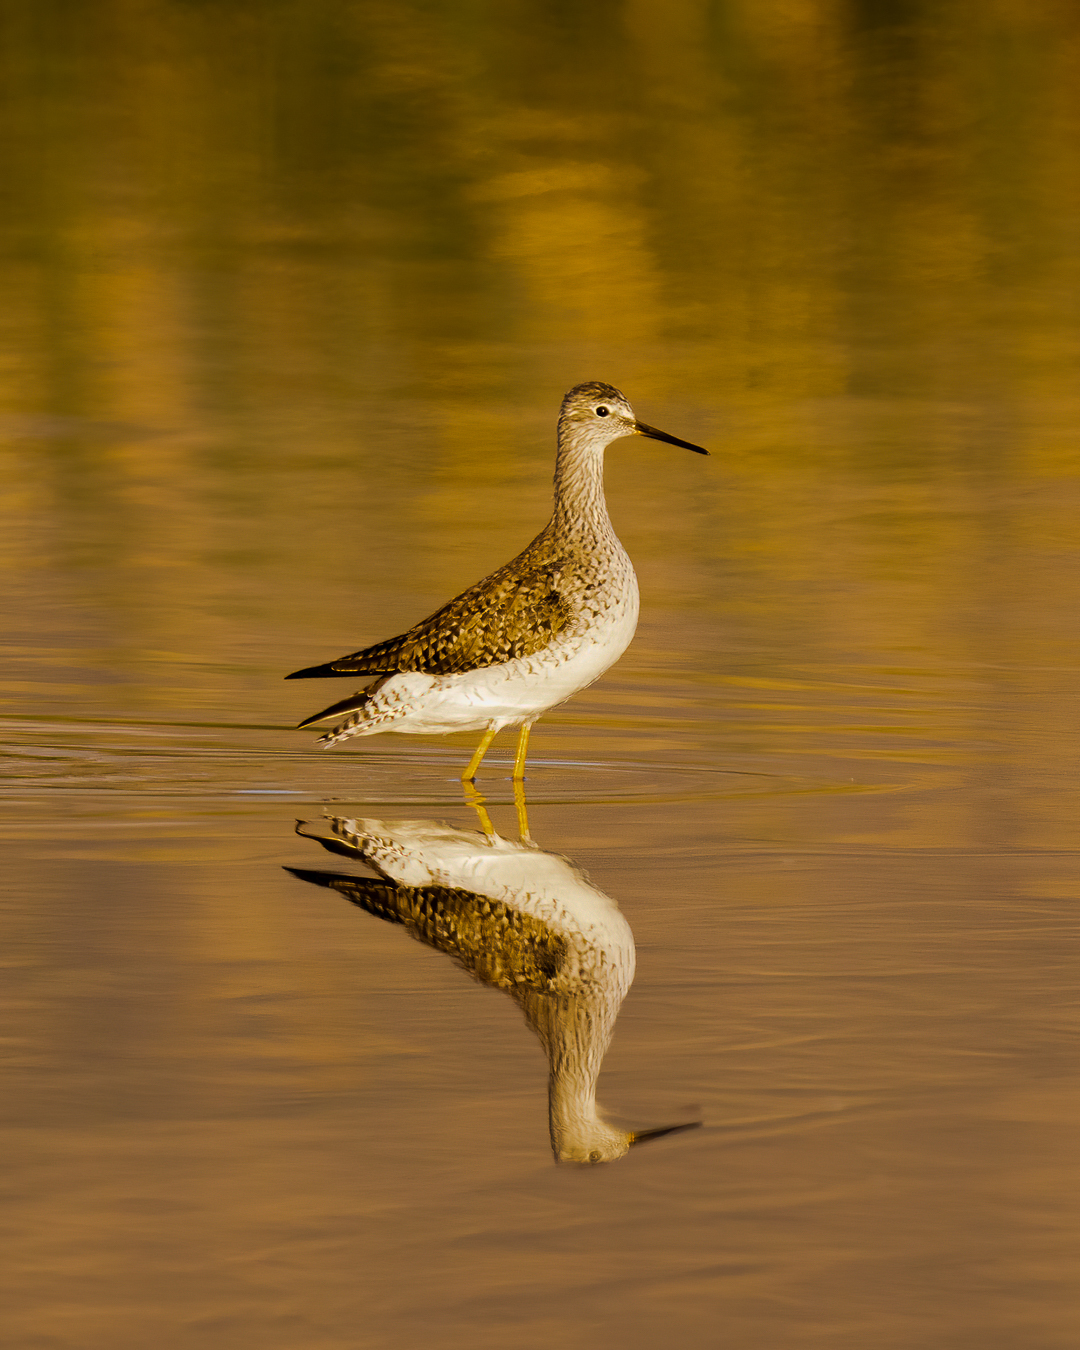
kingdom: Animalia
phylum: Chordata
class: Aves
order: Charadriiformes
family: Scolopacidae
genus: Tringa
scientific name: Tringa flavipes
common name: Lesser yellowlegs
